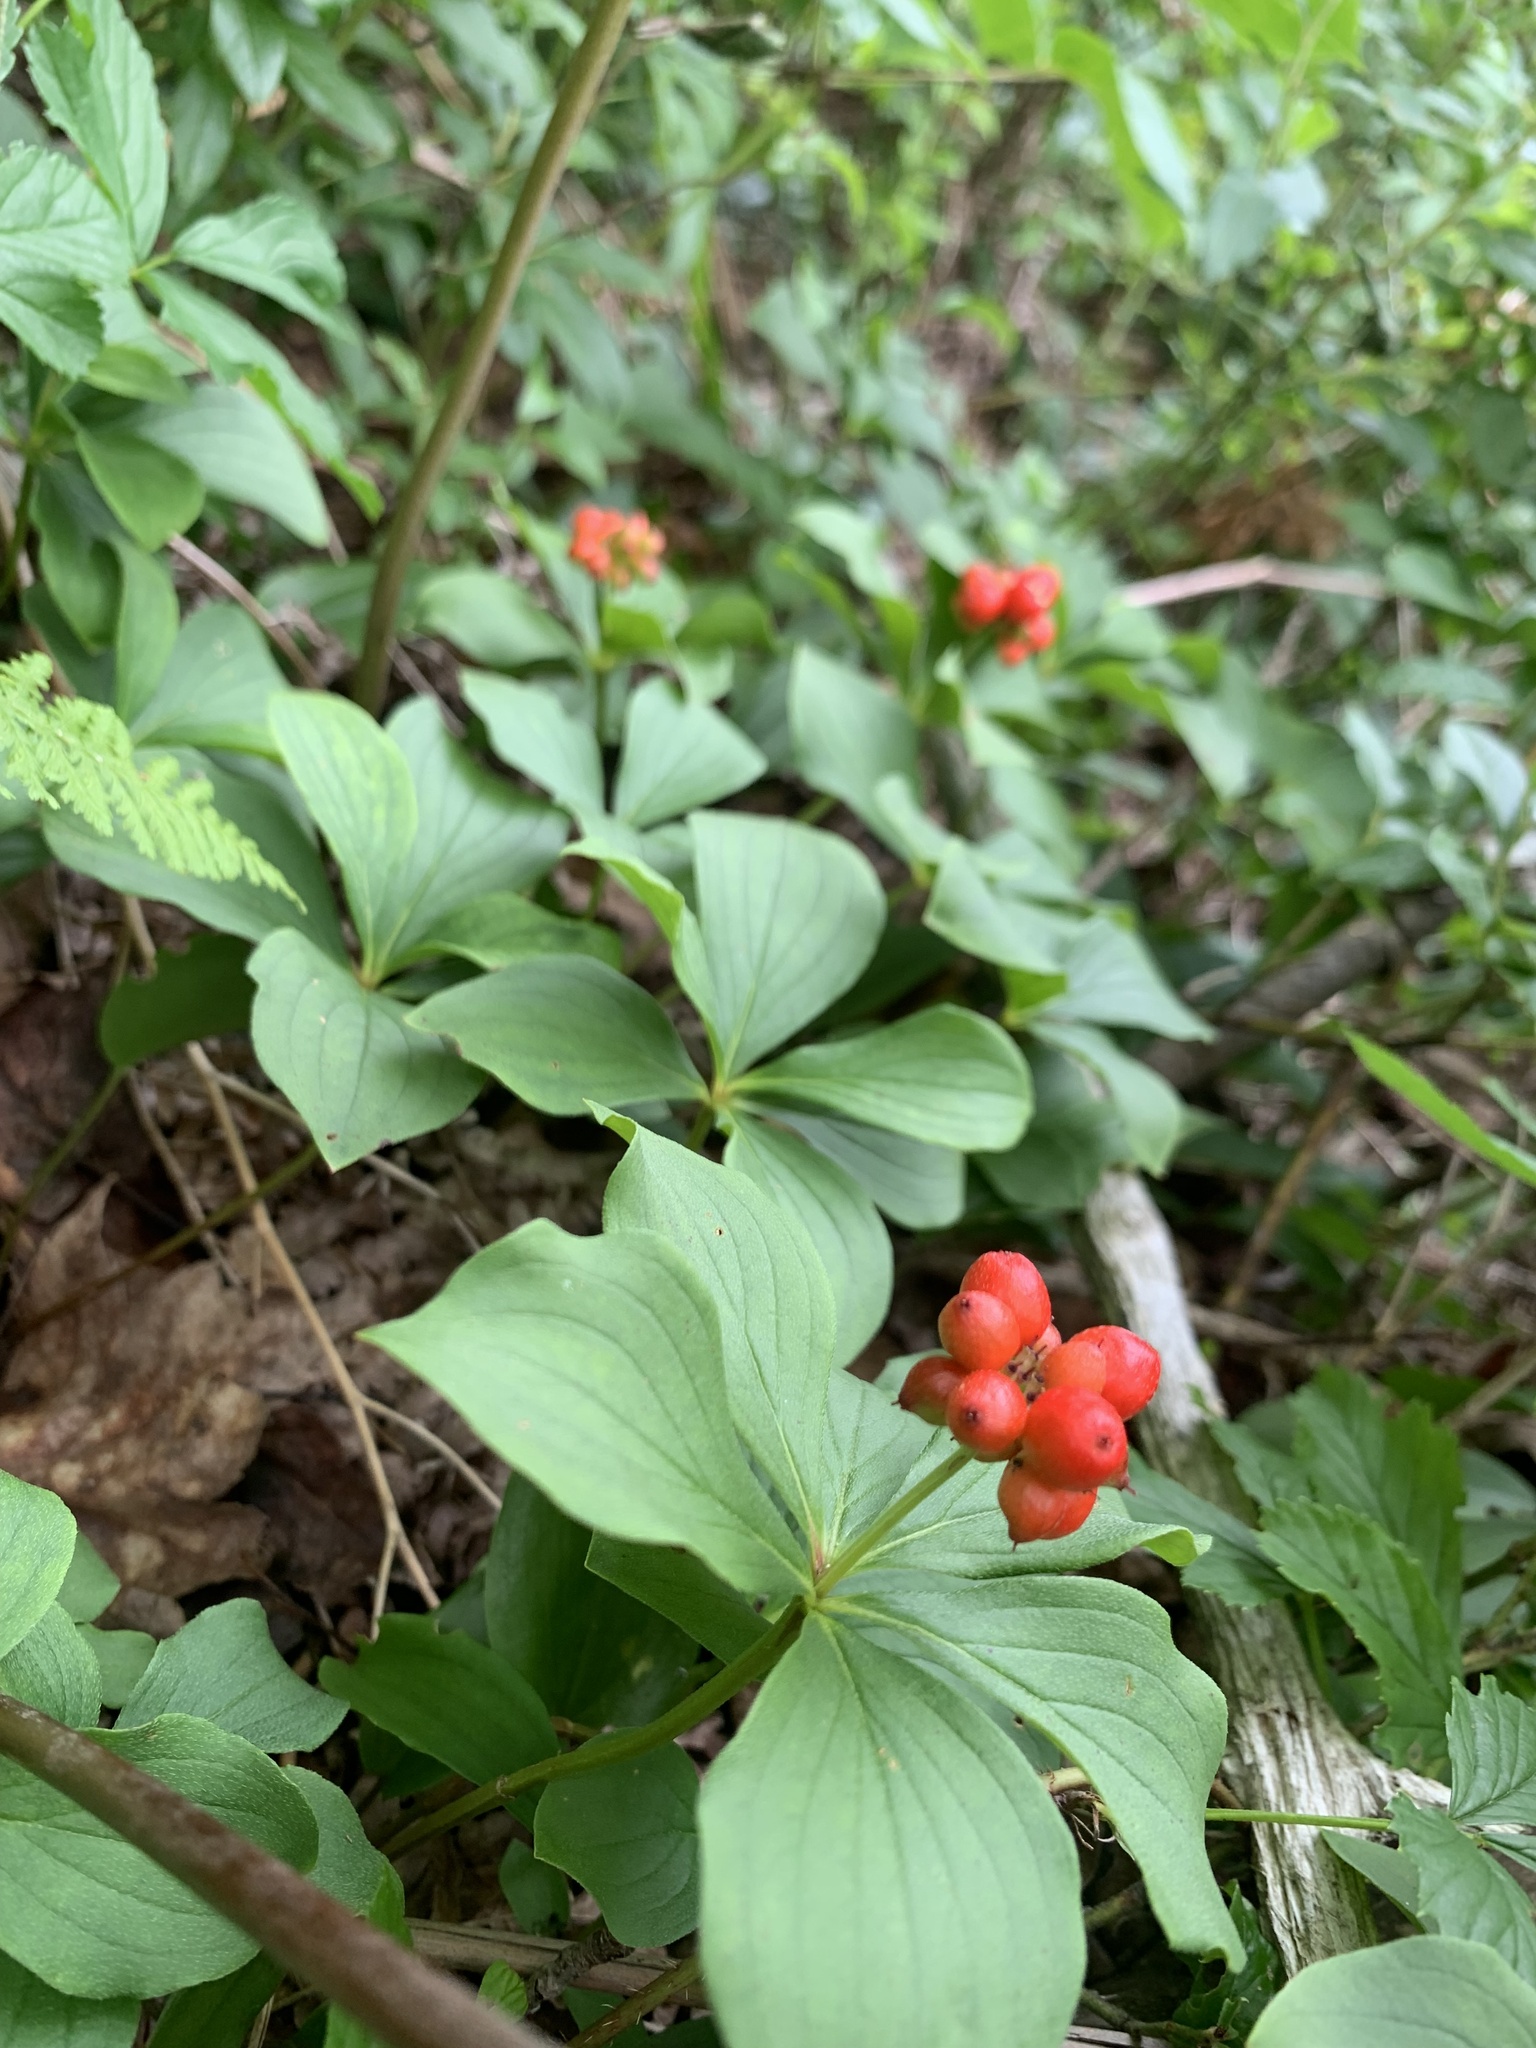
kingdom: Plantae
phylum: Tracheophyta
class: Magnoliopsida
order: Cornales
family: Cornaceae
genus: Cornus
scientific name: Cornus canadensis
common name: Creeping dogwood
